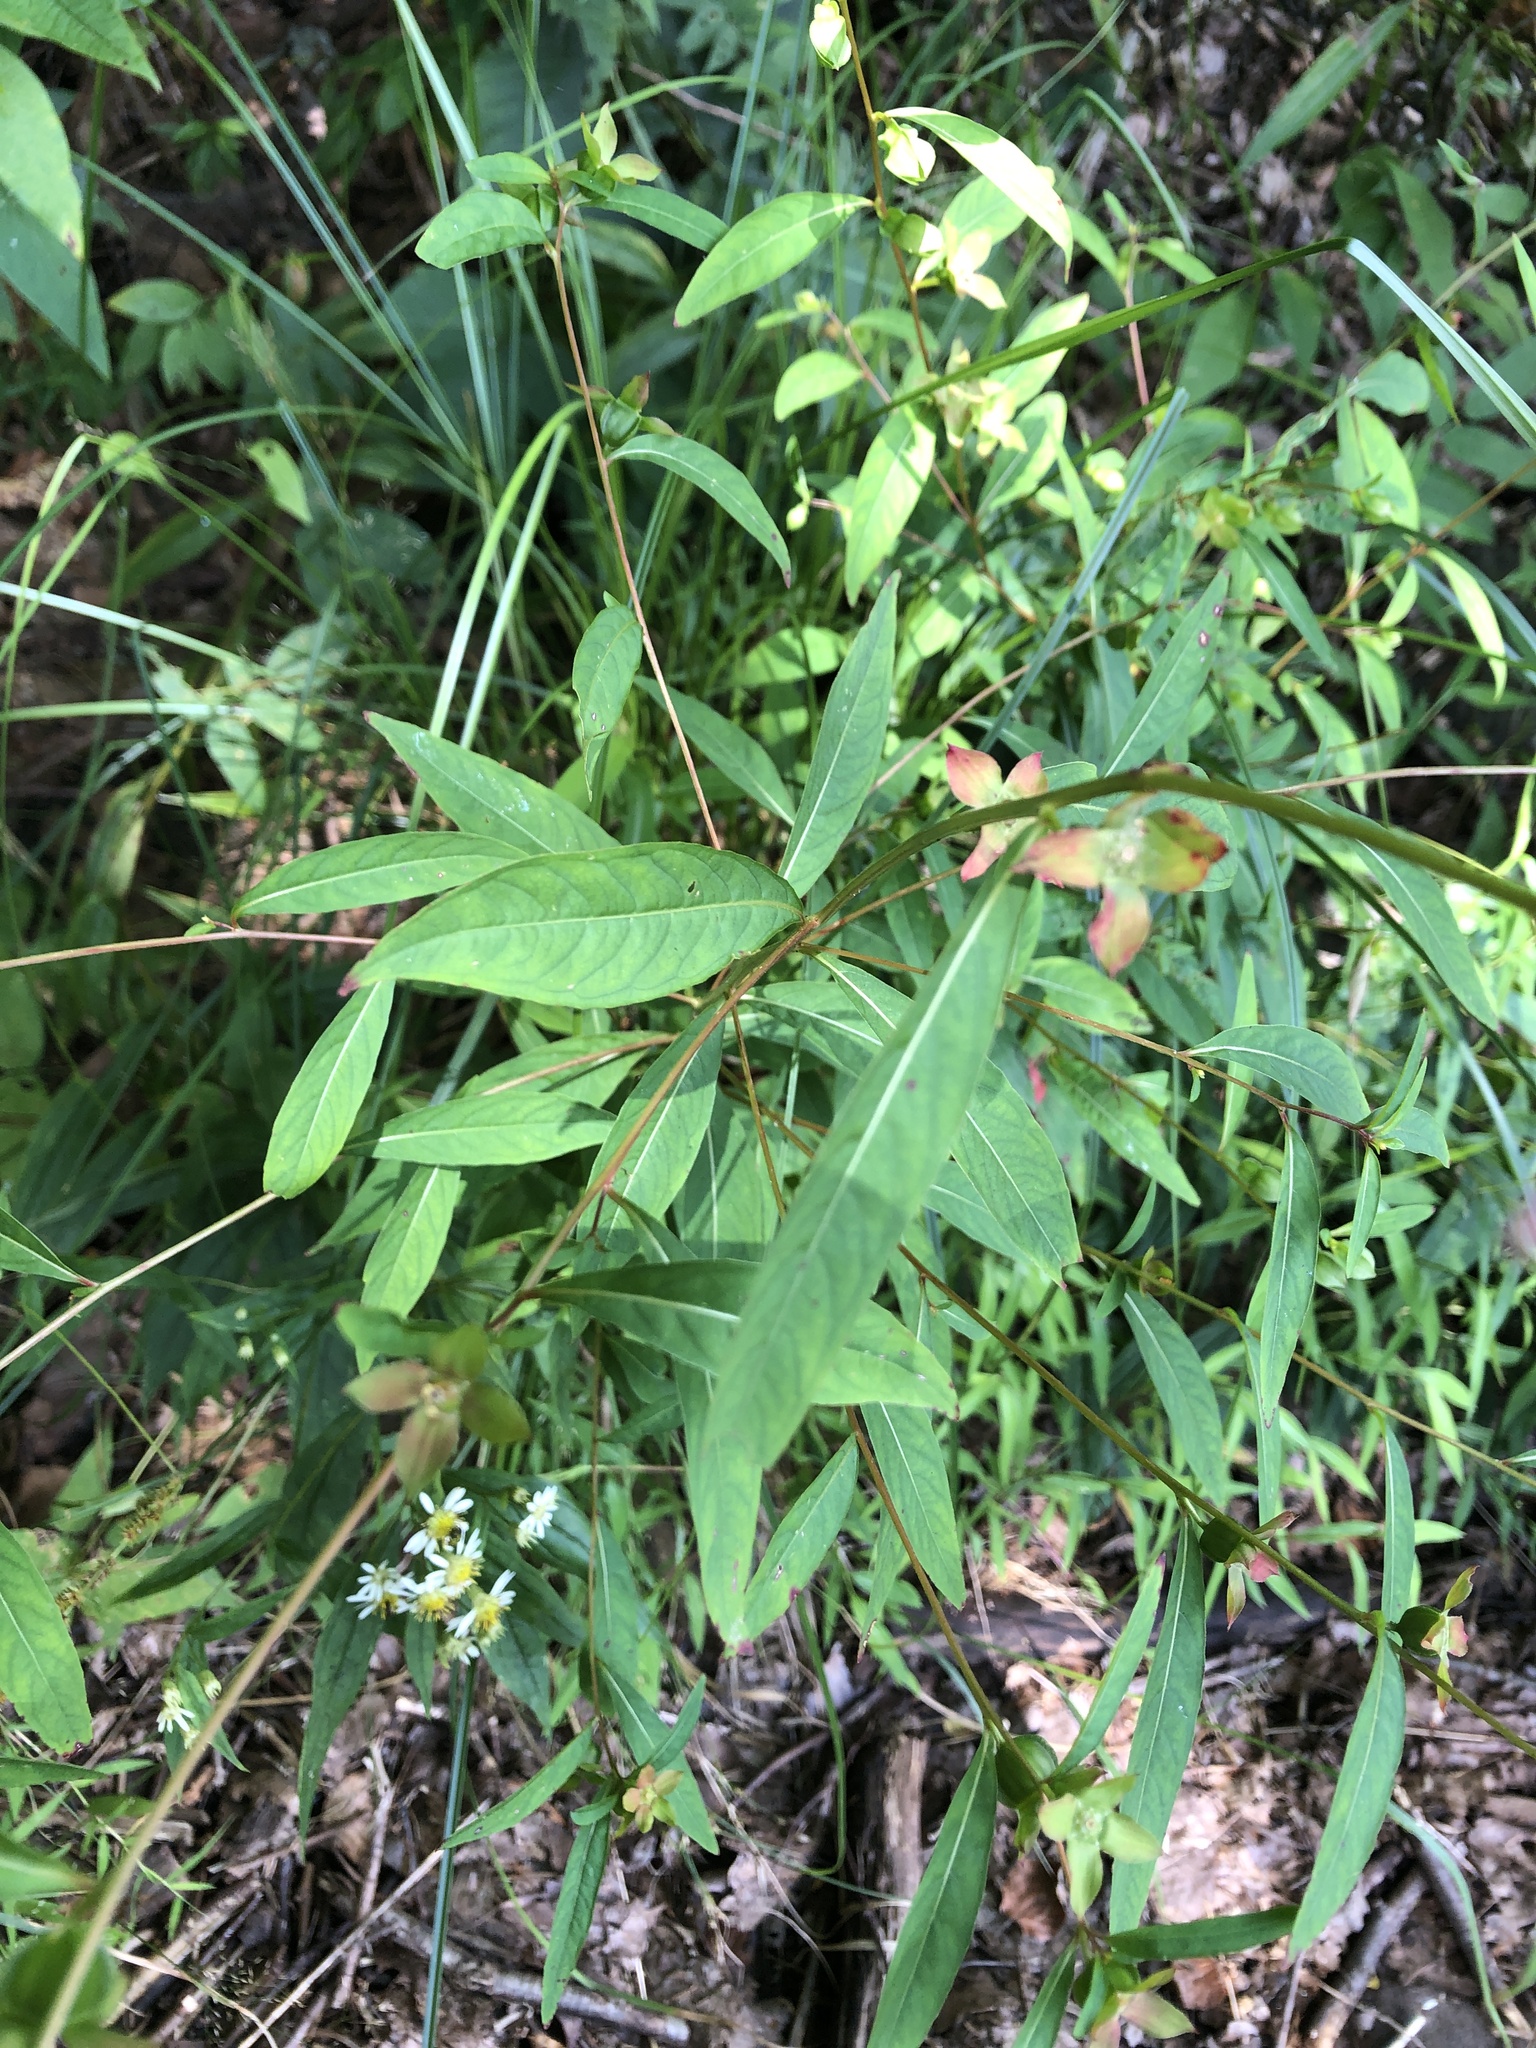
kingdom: Plantae
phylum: Tracheophyta
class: Magnoliopsida
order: Myrtales
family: Onagraceae
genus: Ludwigia
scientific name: Ludwigia alternifolia
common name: Rattlebox
